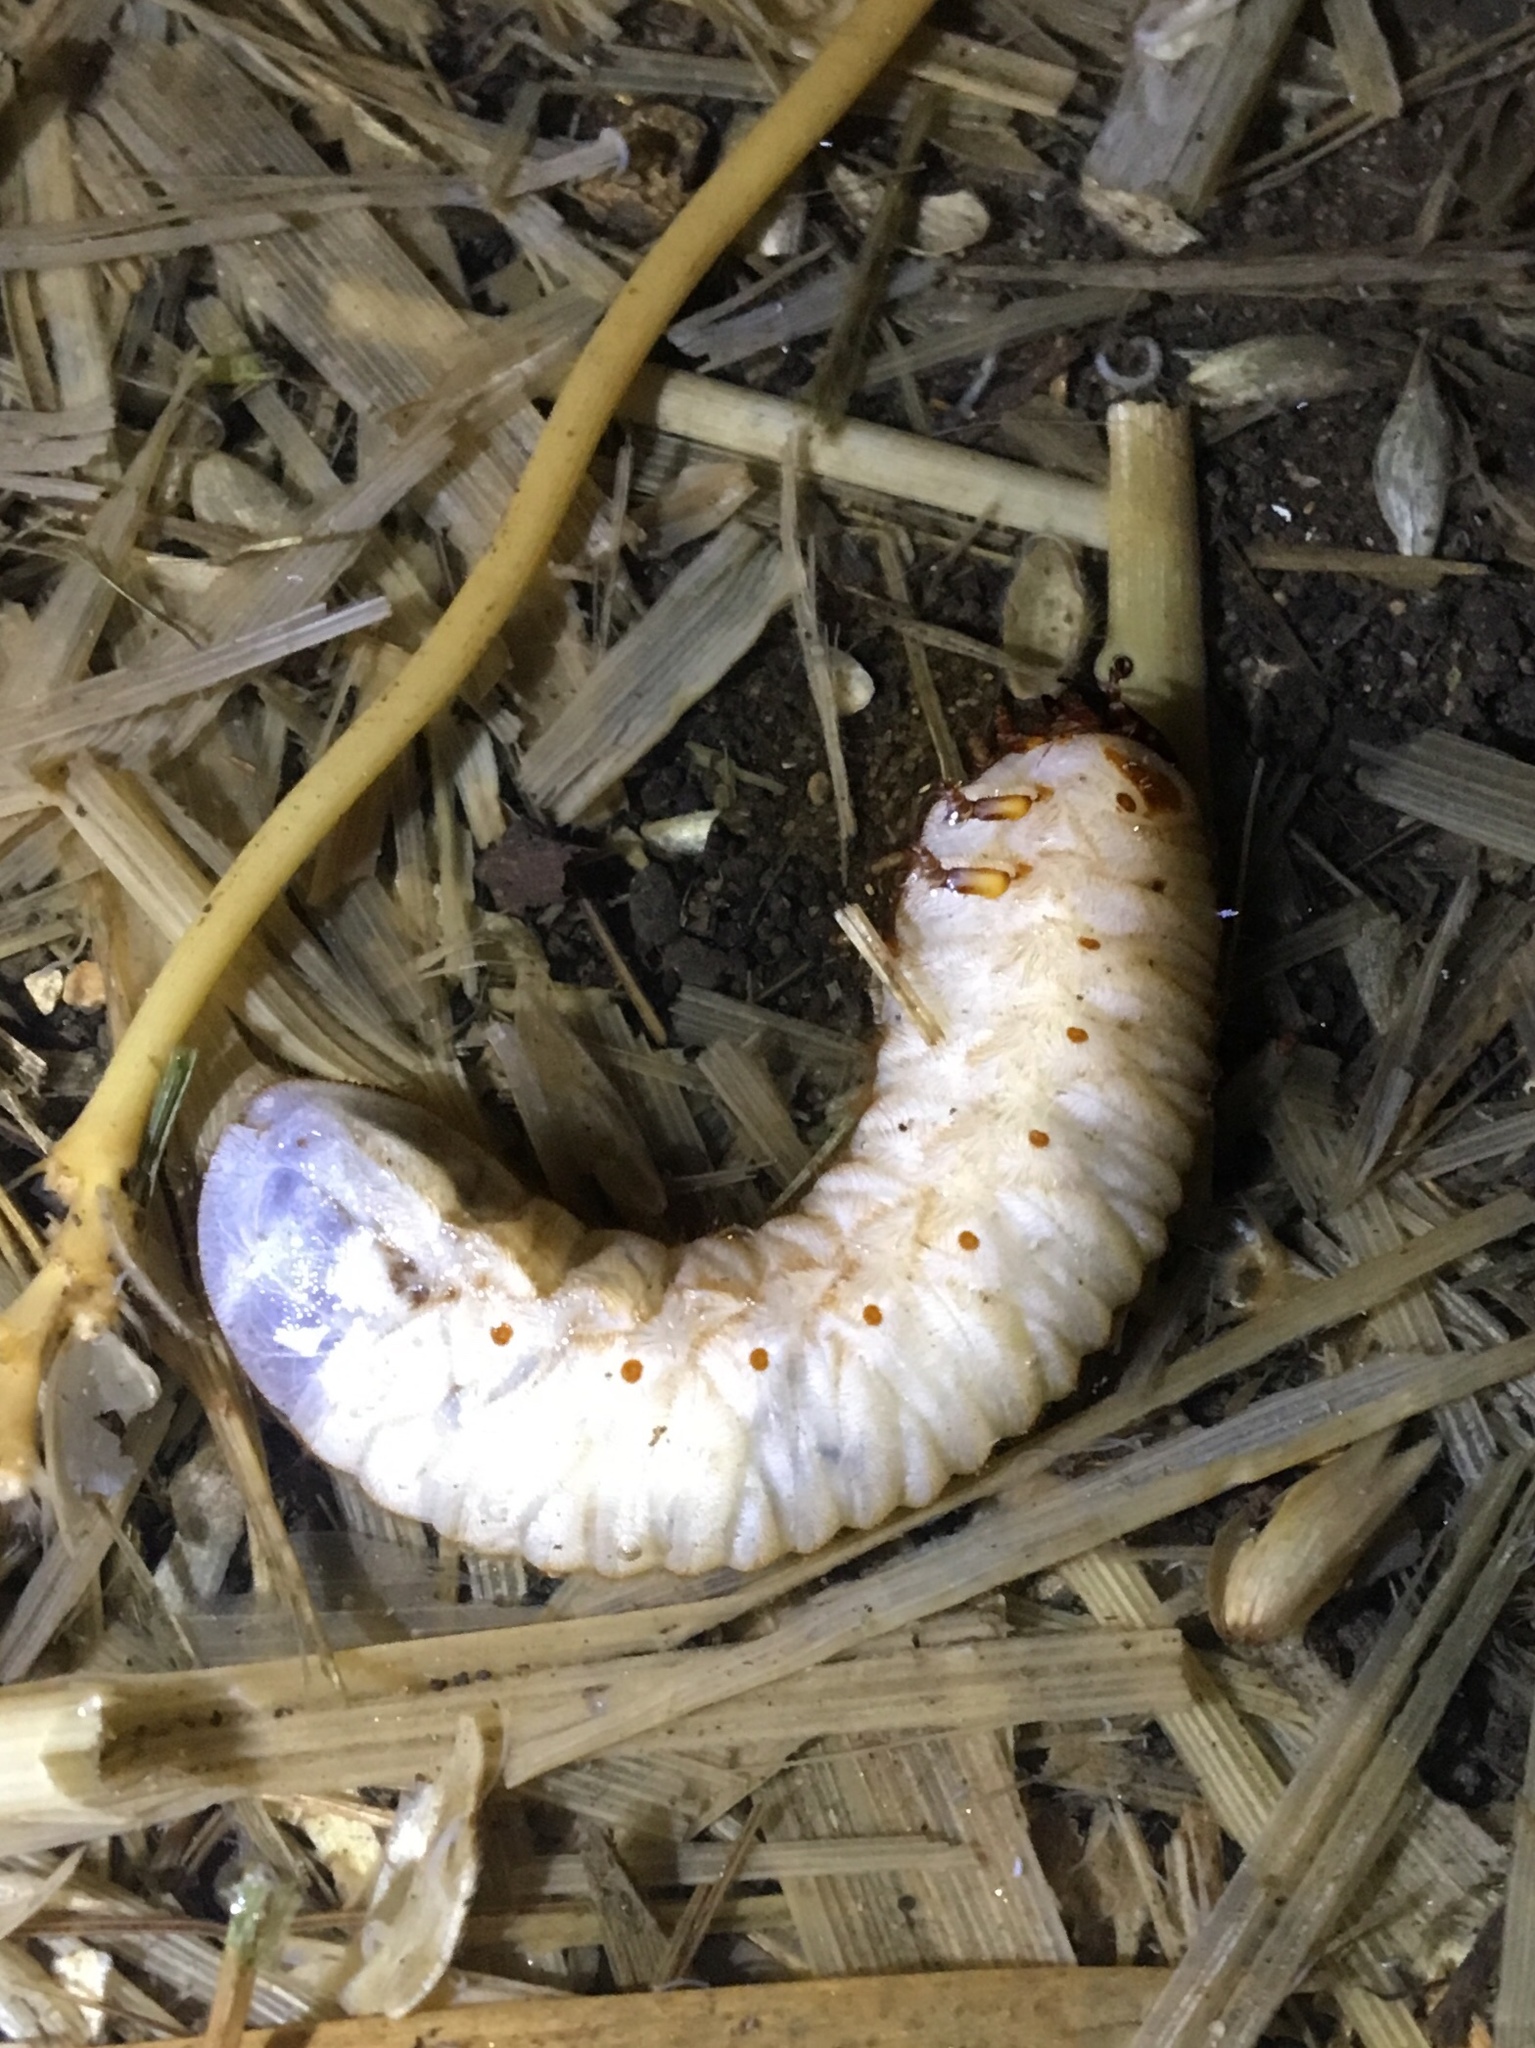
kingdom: Animalia
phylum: Arthropoda
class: Insecta
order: Coleoptera
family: Scarabaeidae
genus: Cotinis
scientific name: Cotinis mutabilis
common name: Figeater beetle
